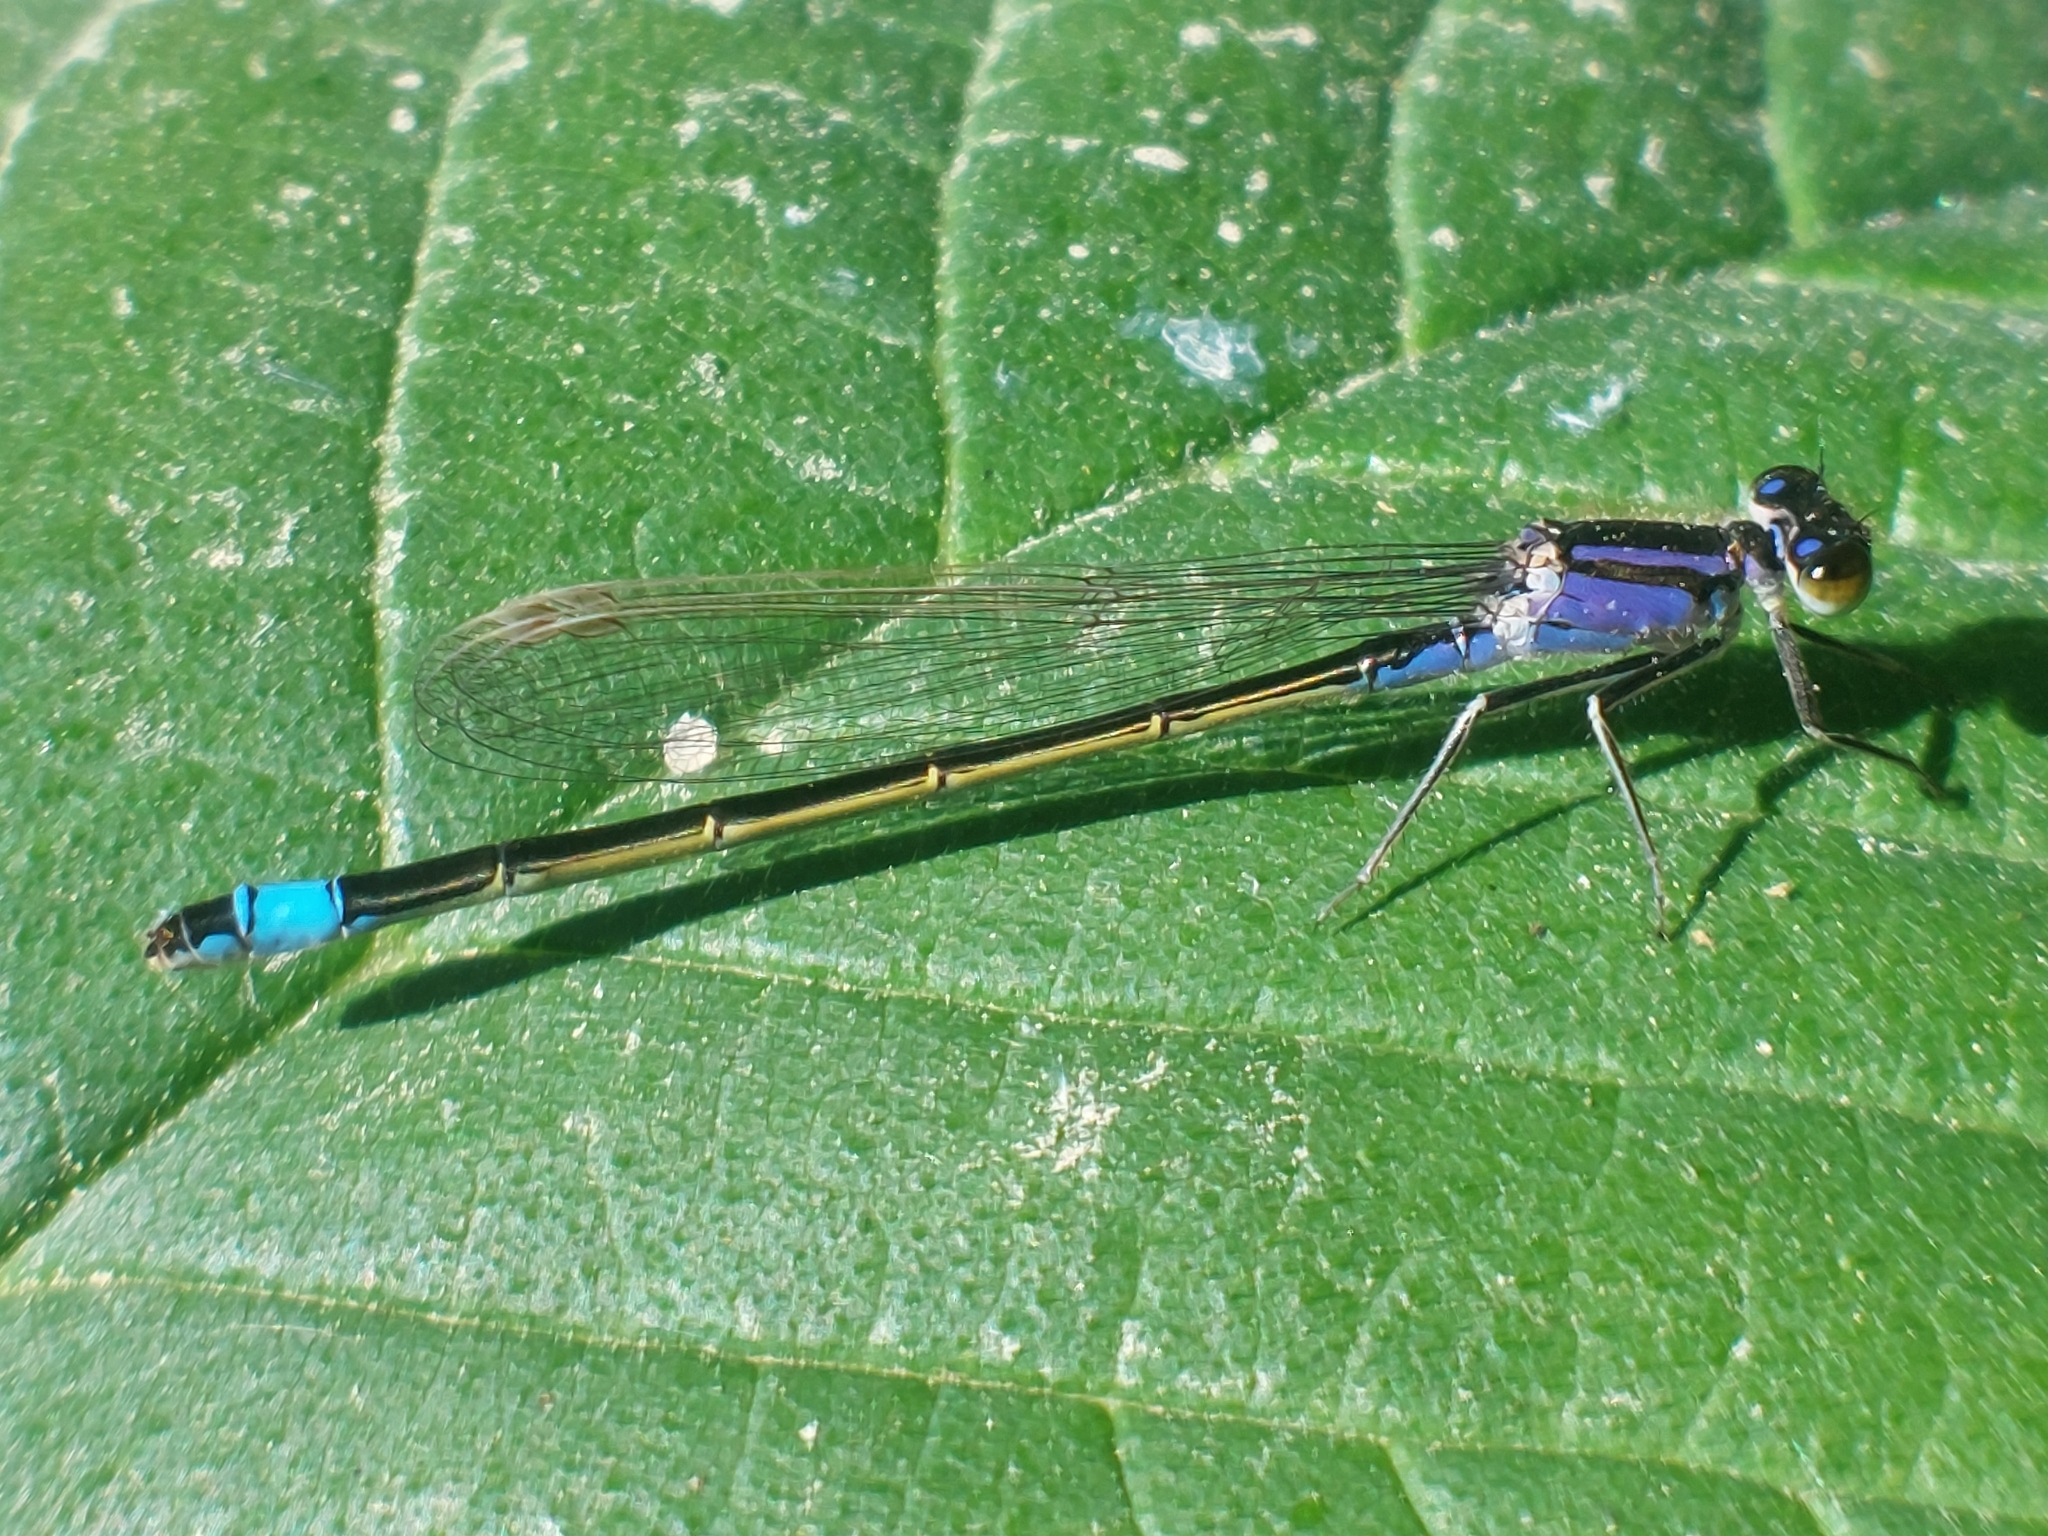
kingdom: Animalia
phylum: Arthropoda
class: Insecta
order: Odonata
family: Coenagrionidae
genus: Ischnura
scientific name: Ischnura elegans
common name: Blue-tailed damselfly
